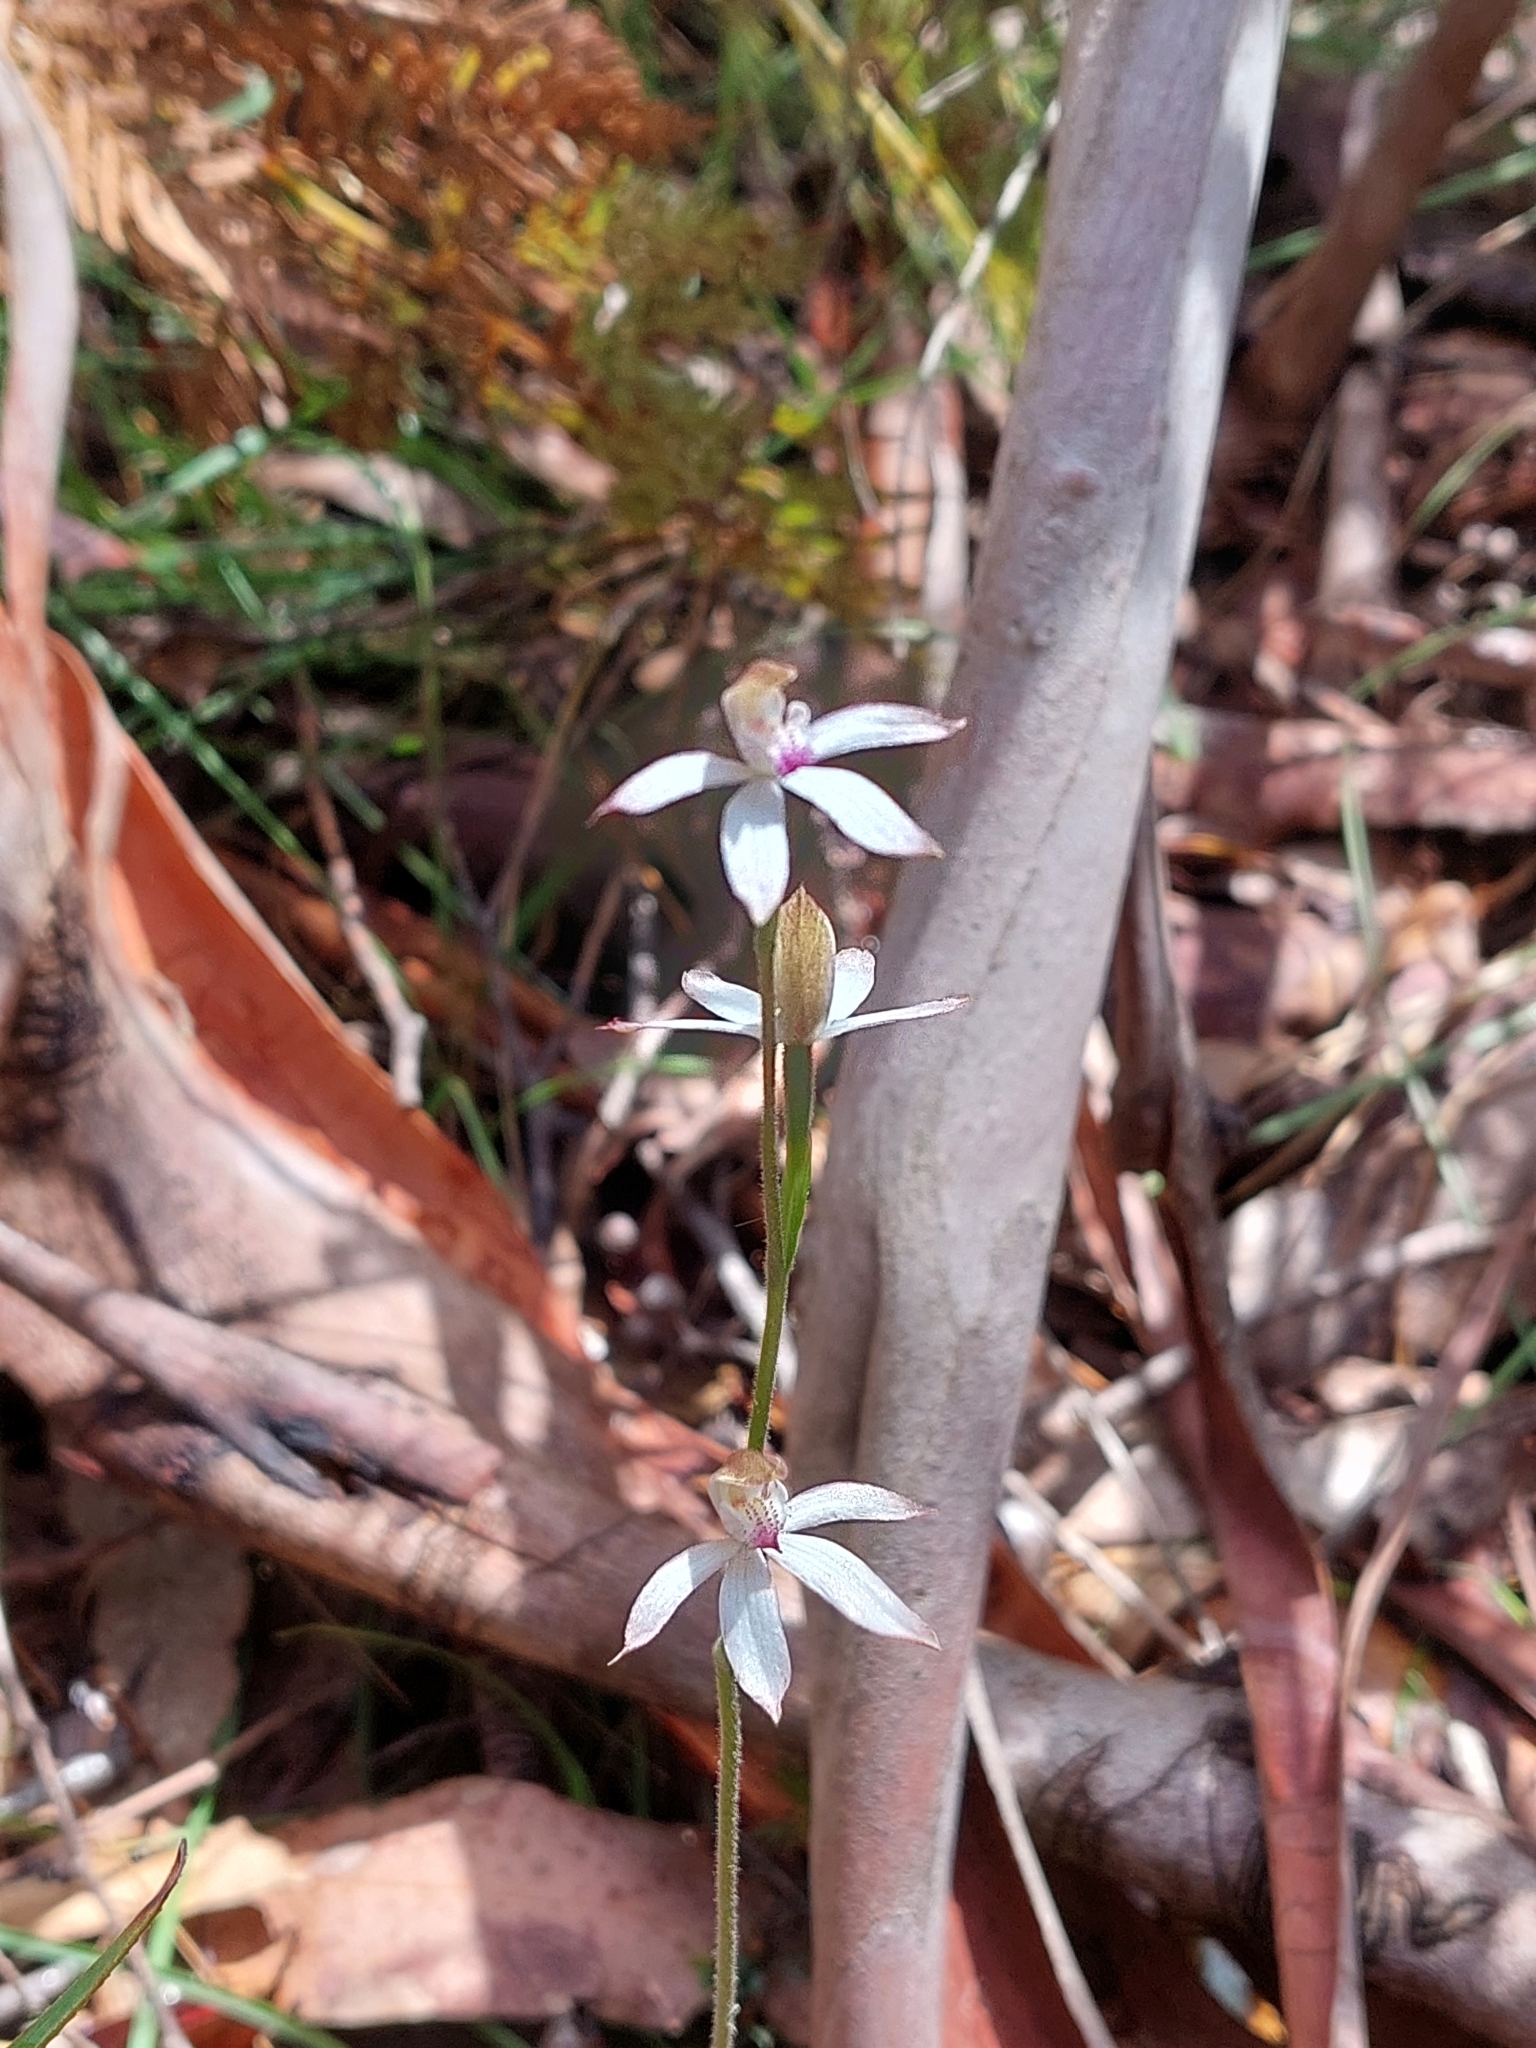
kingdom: Plantae
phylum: Tracheophyta
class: Liliopsida
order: Asparagales
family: Orchidaceae
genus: Caladenia
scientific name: Caladenia moschata
